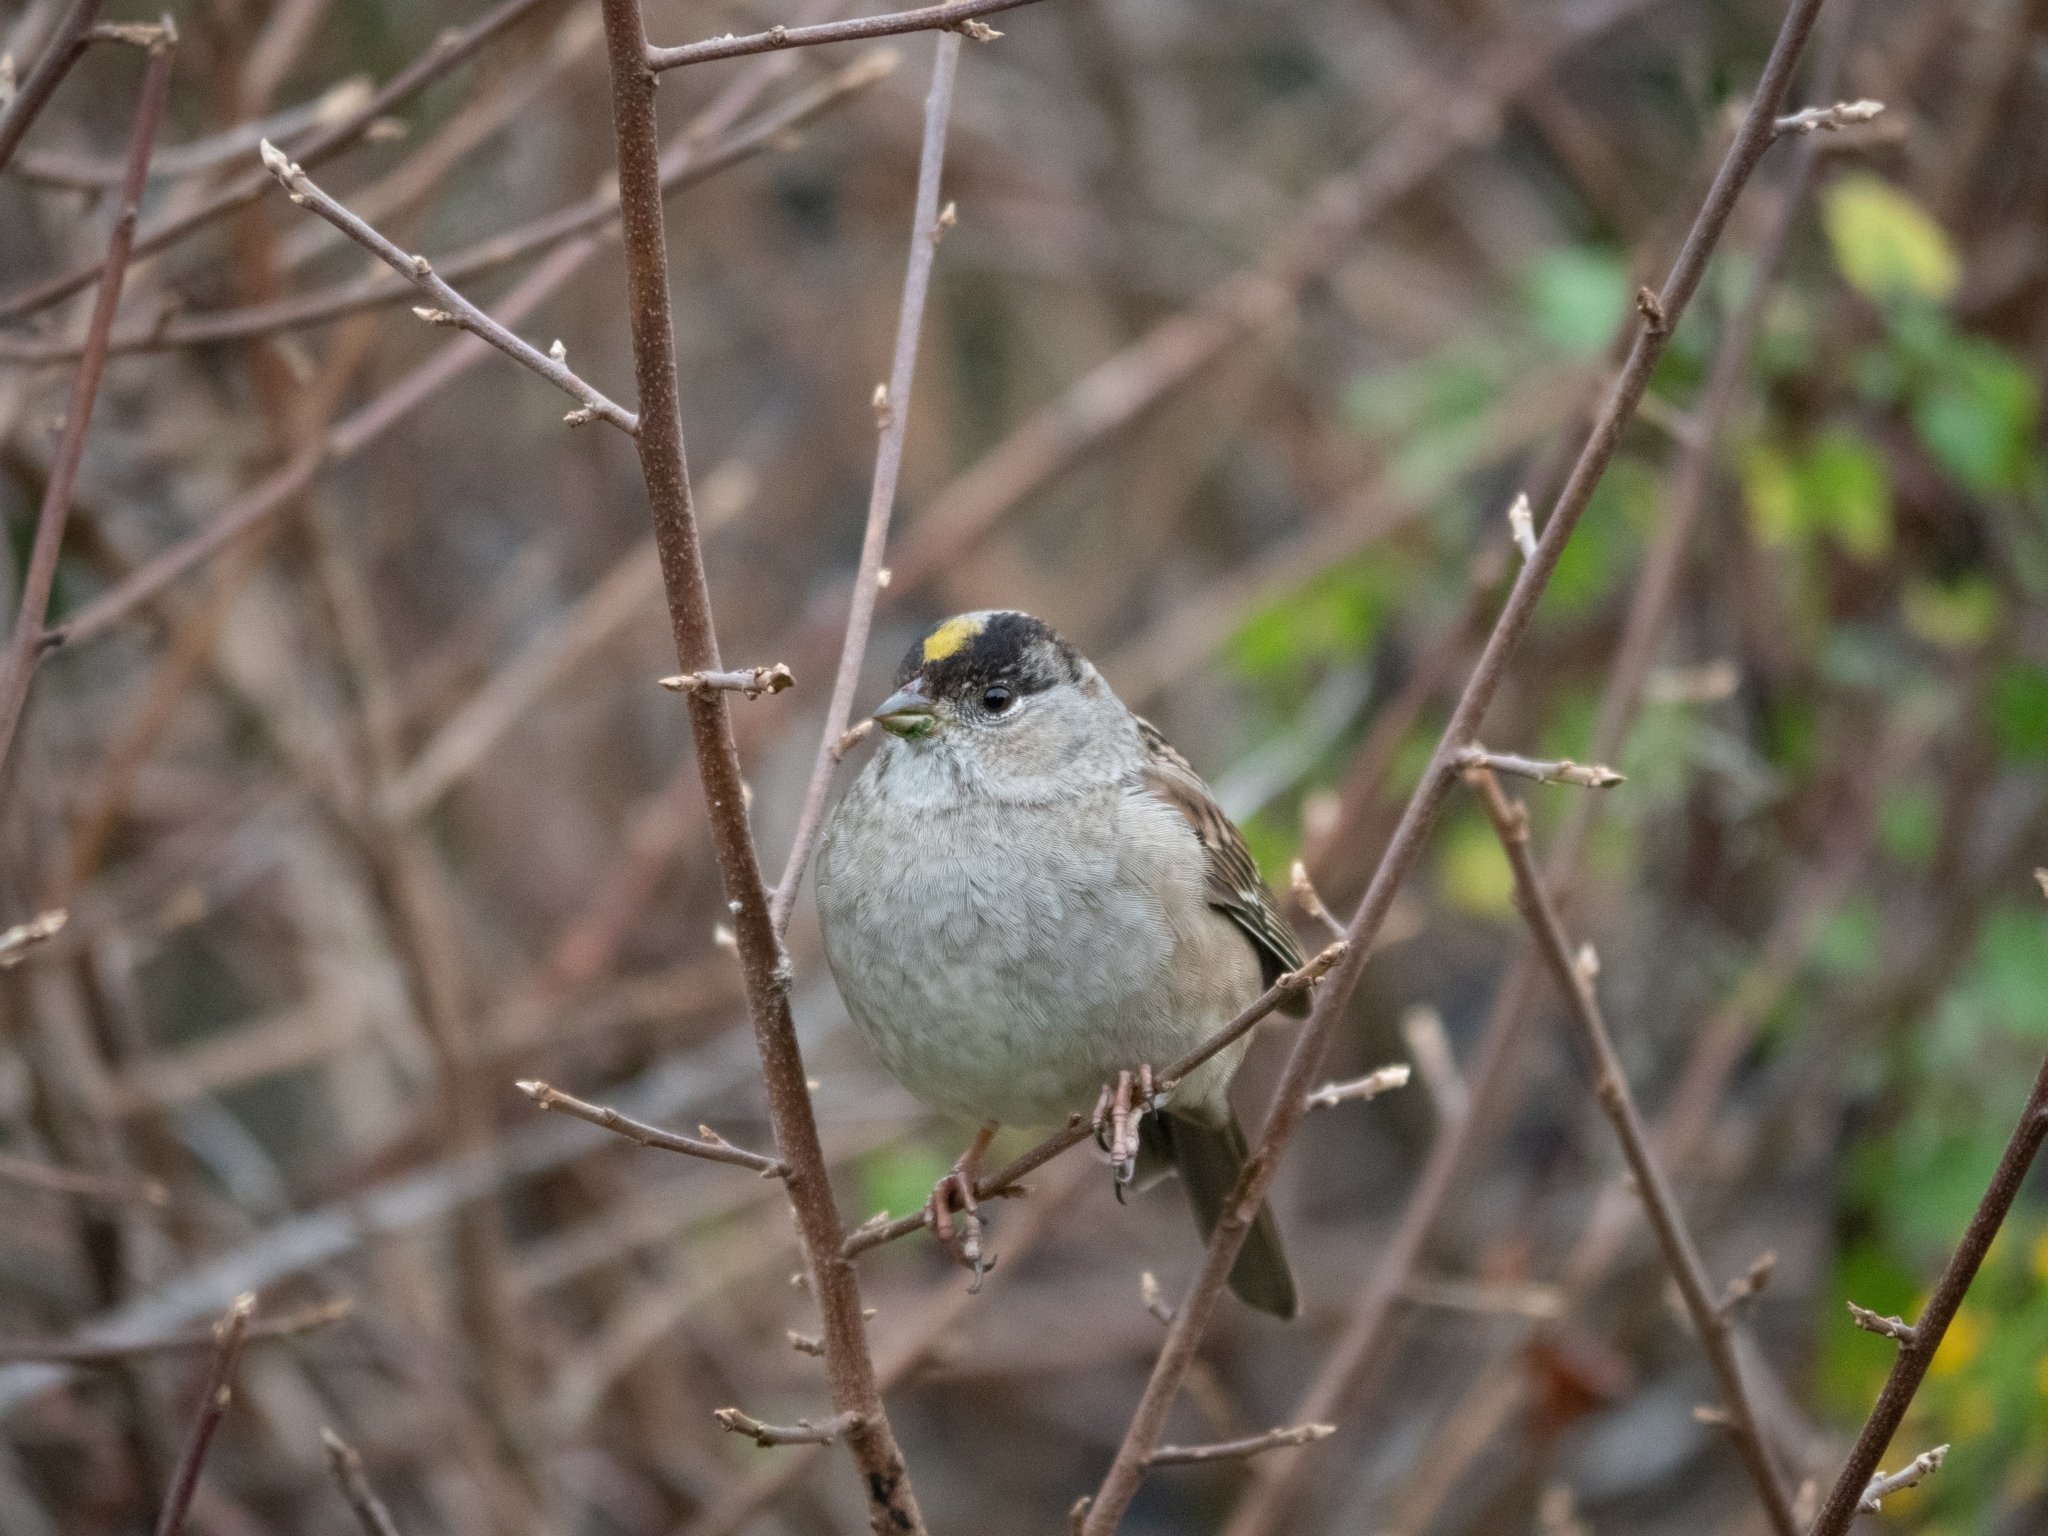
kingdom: Animalia
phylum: Chordata
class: Aves
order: Passeriformes
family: Passerellidae
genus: Zonotrichia
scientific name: Zonotrichia atricapilla
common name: Golden-crowned sparrow
